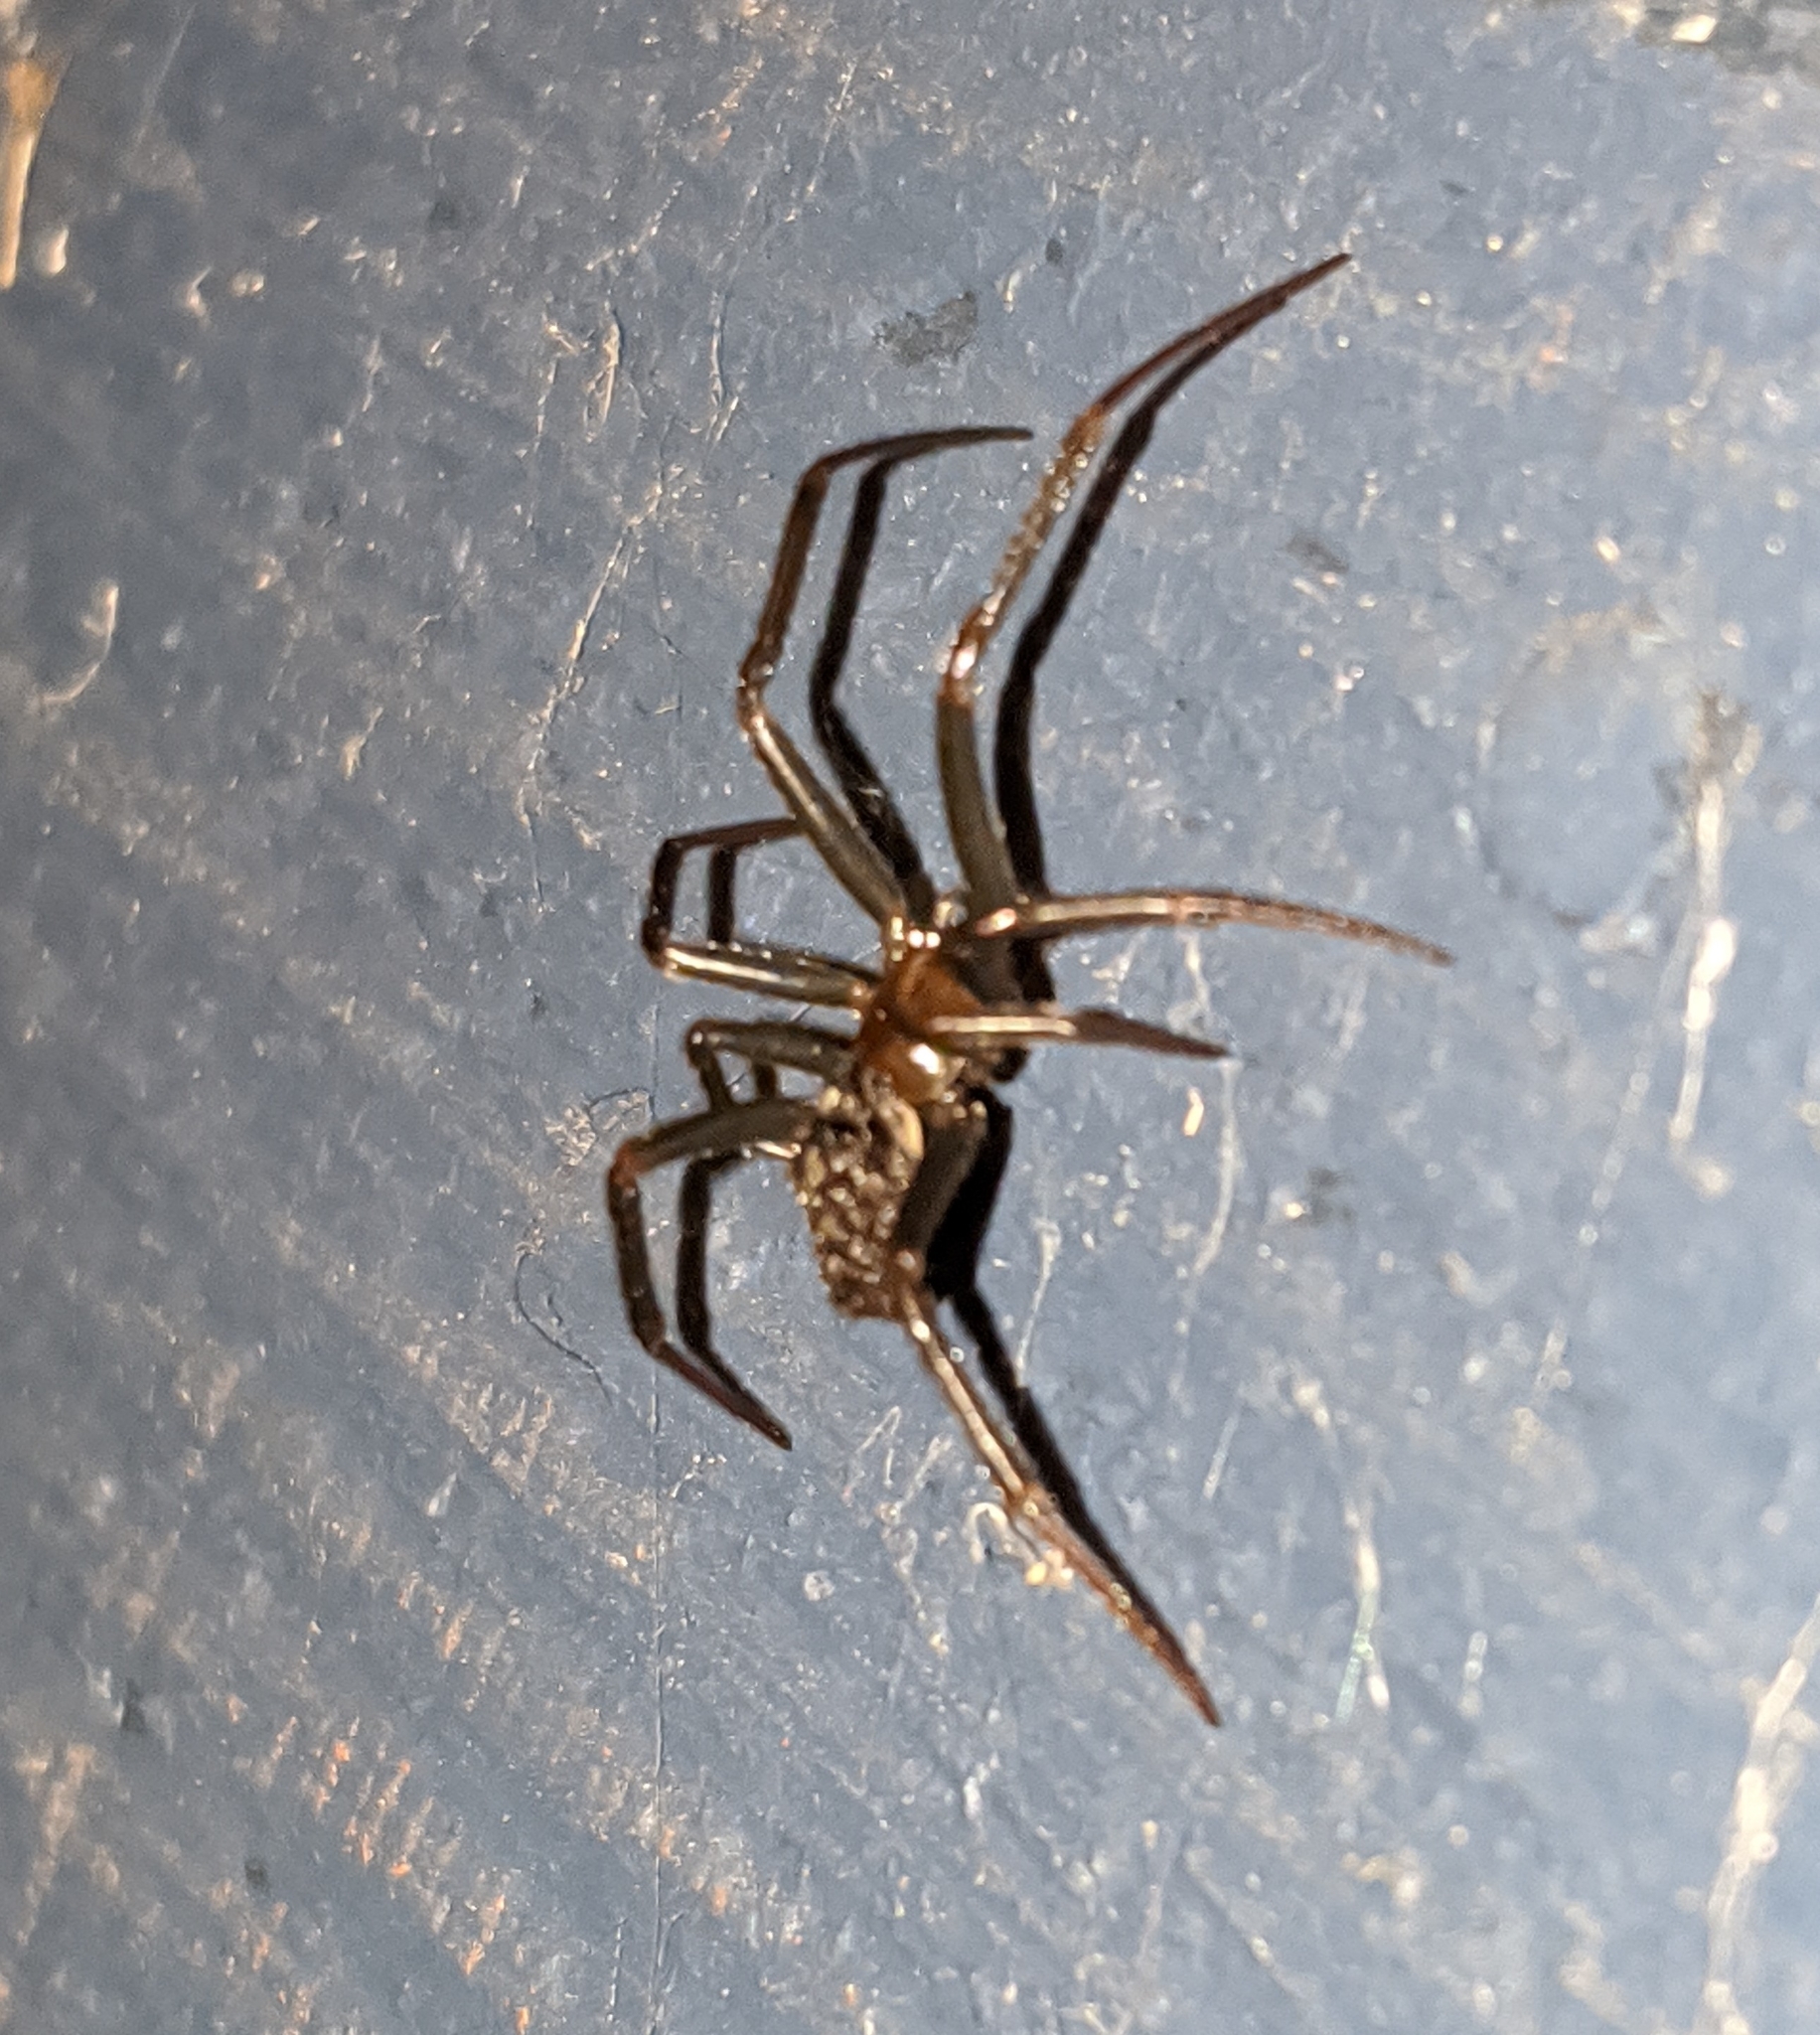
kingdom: Animalia
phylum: Arthropoda
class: Arachnida
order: Araneae
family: Theridiidae
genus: Steatoda
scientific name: Steatoda grossa
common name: False black widow
